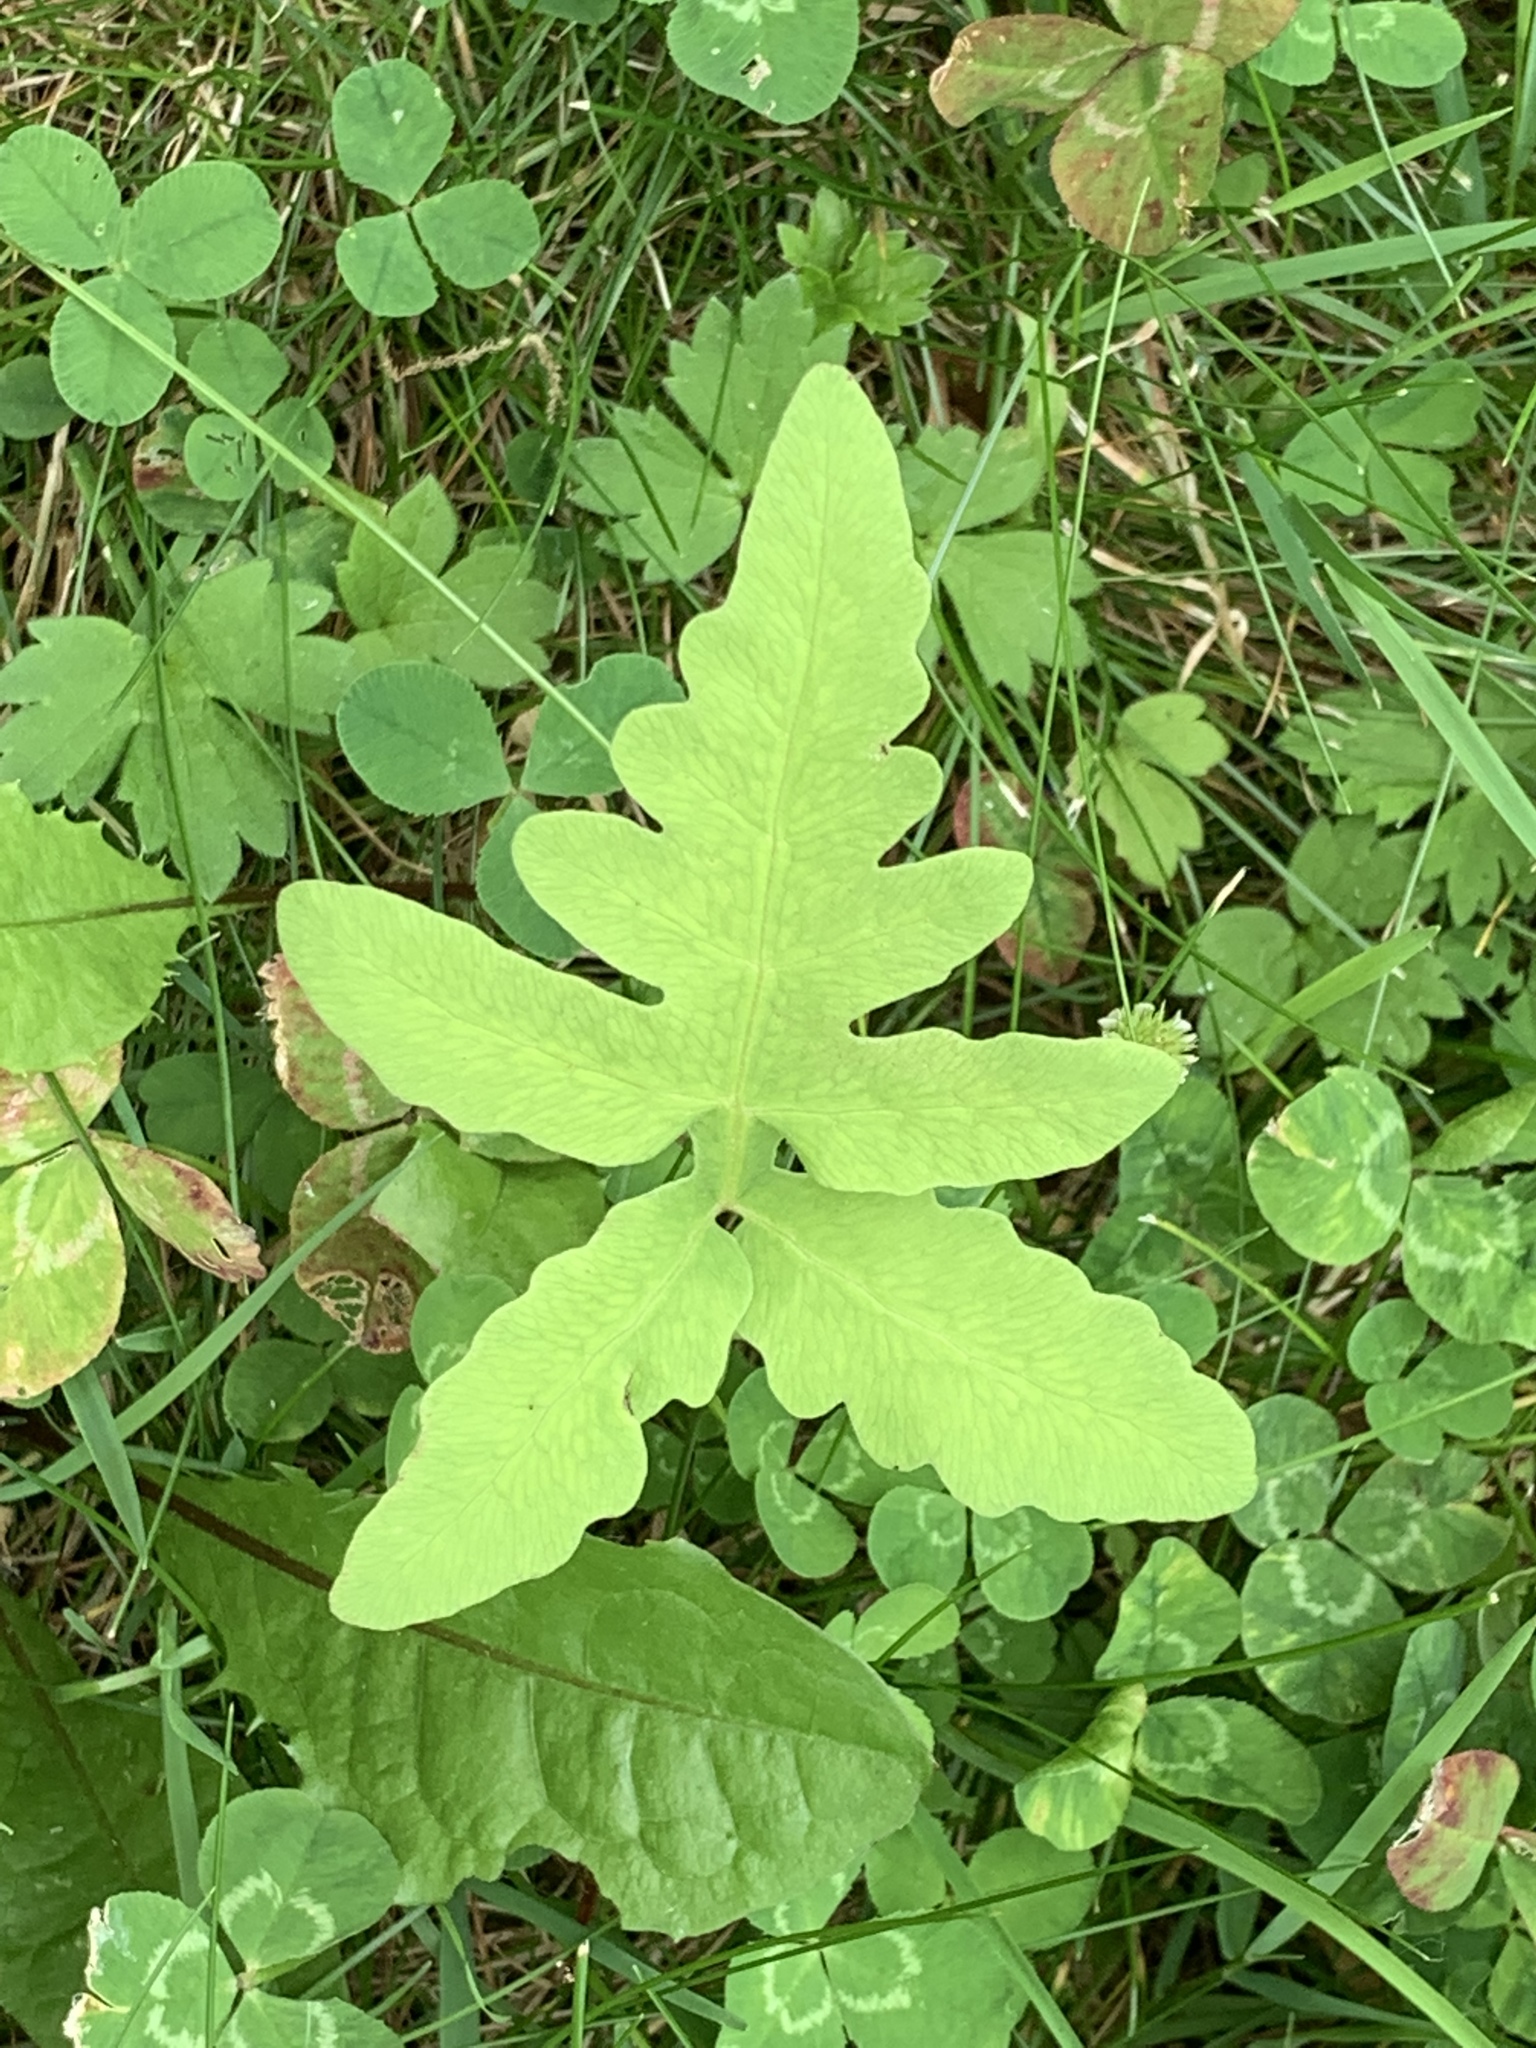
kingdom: Plantae
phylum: Tracheophyta
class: Polypodiopsida
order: Polypodiales
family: Onocleaceae
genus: Onoclea
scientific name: Onoclea sensibilis
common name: Sensitive fern
